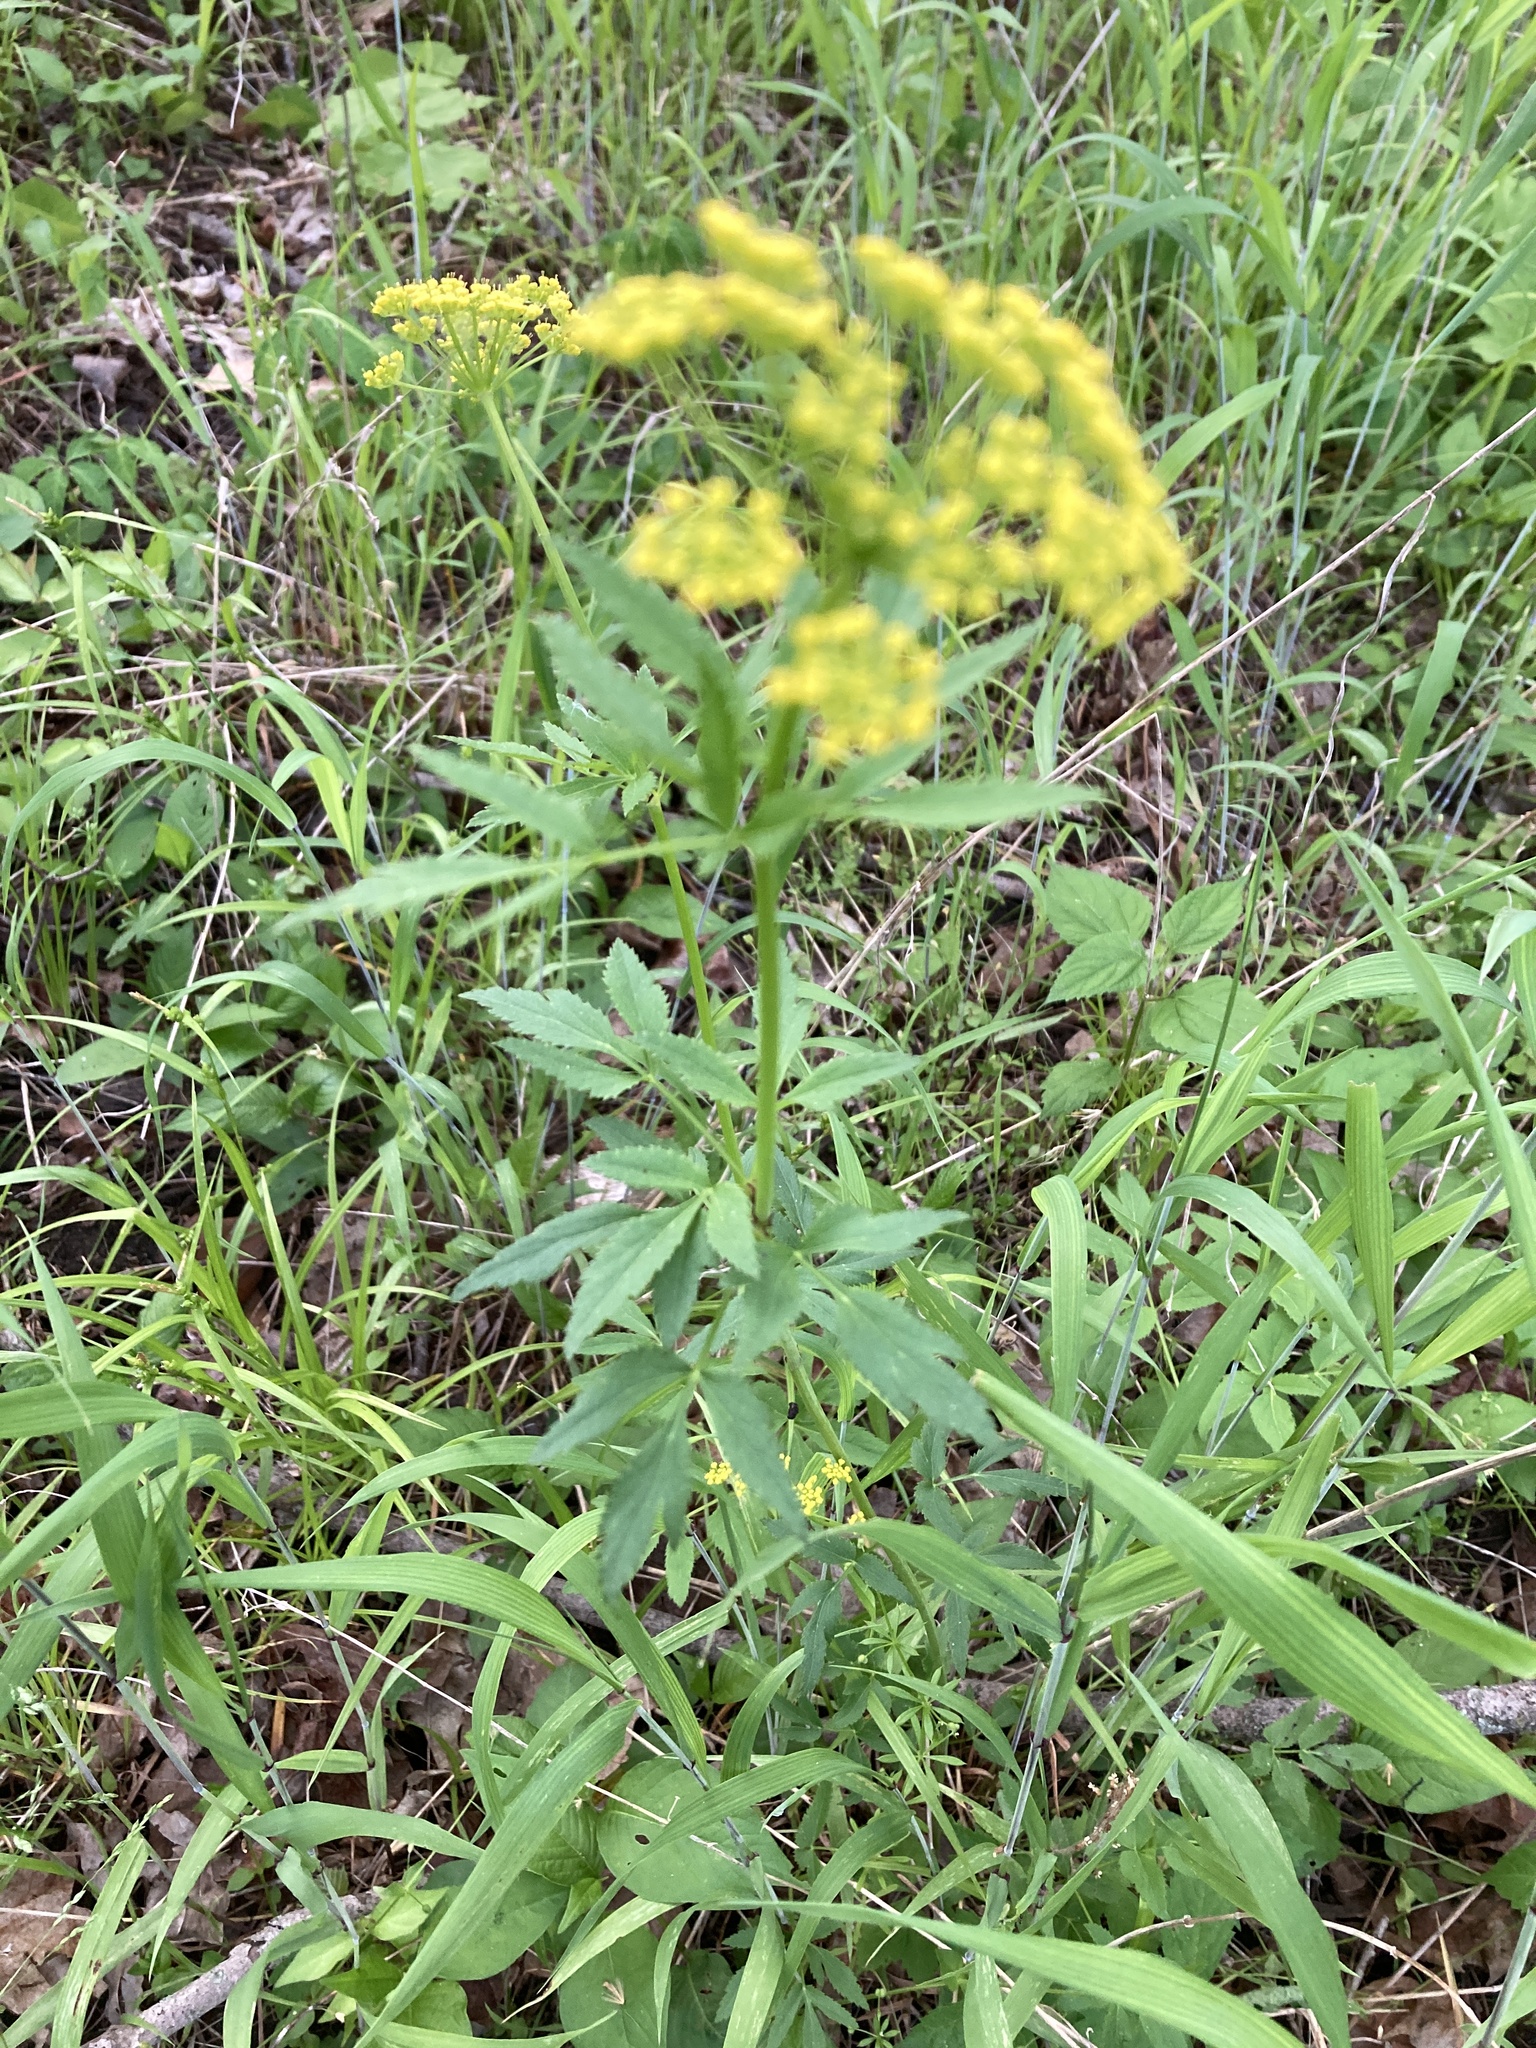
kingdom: Plantae
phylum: Tracheophyta
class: Magnoliopsida
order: Apiales
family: Apiaceae
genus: Zizia
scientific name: Zizia aurea
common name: Golden alexanders
